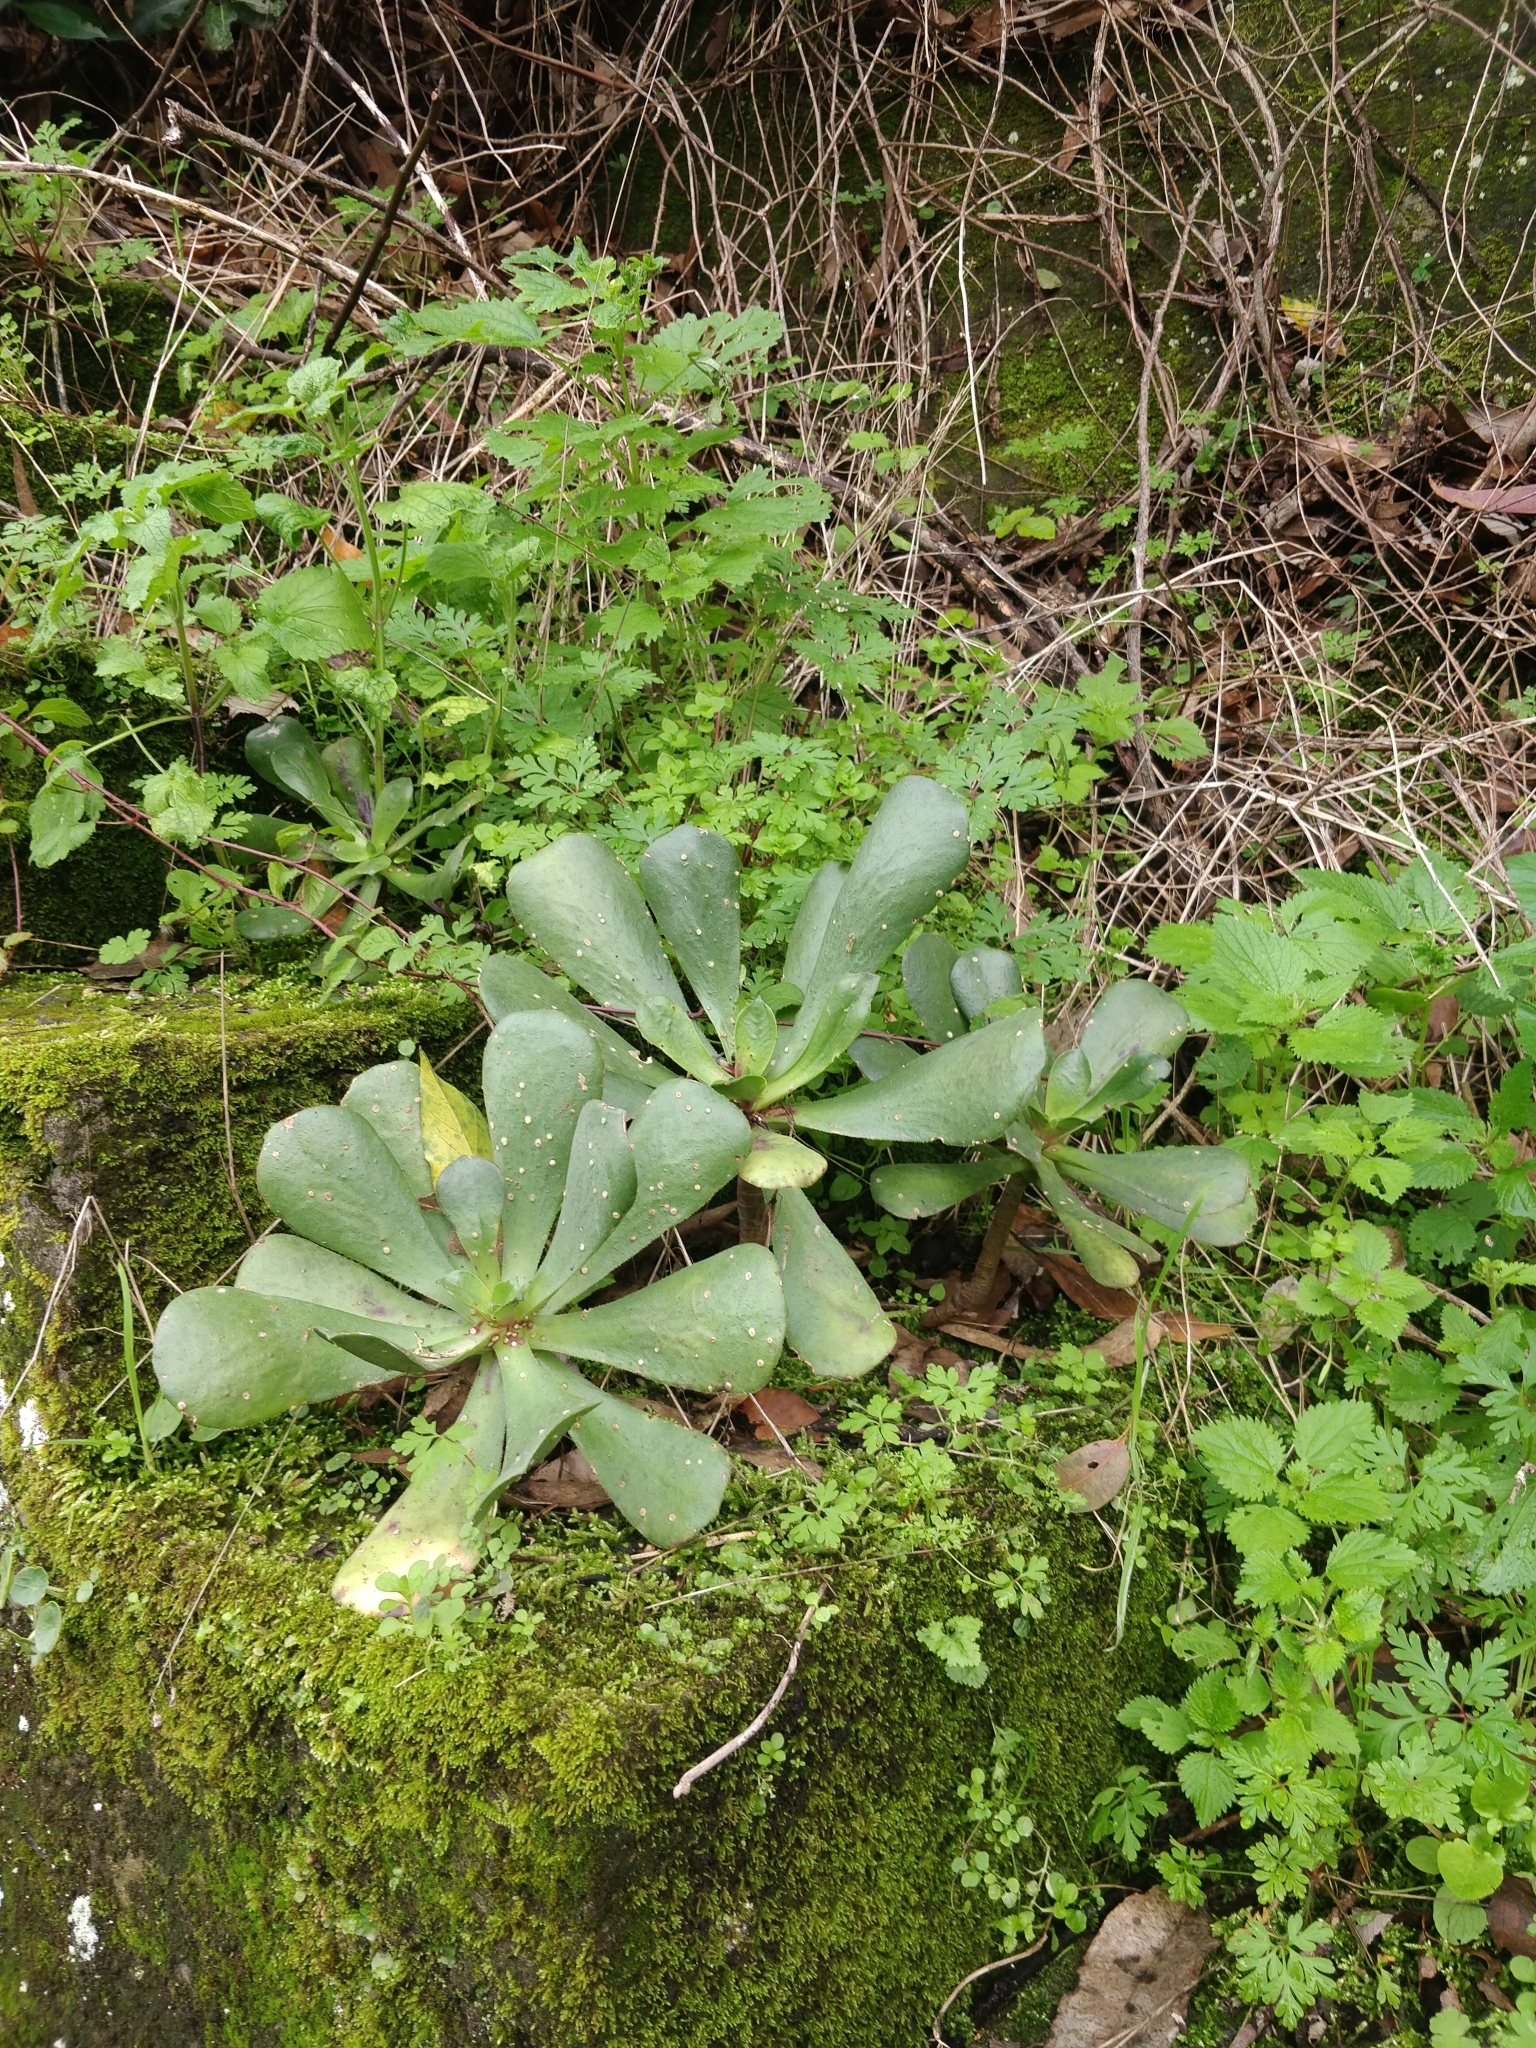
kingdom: Plantae
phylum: Tracheophyta
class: Magnoliopsida
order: Saxifragales
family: Crassulaceae
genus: Aeonium
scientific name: Aeonium glutinosum
